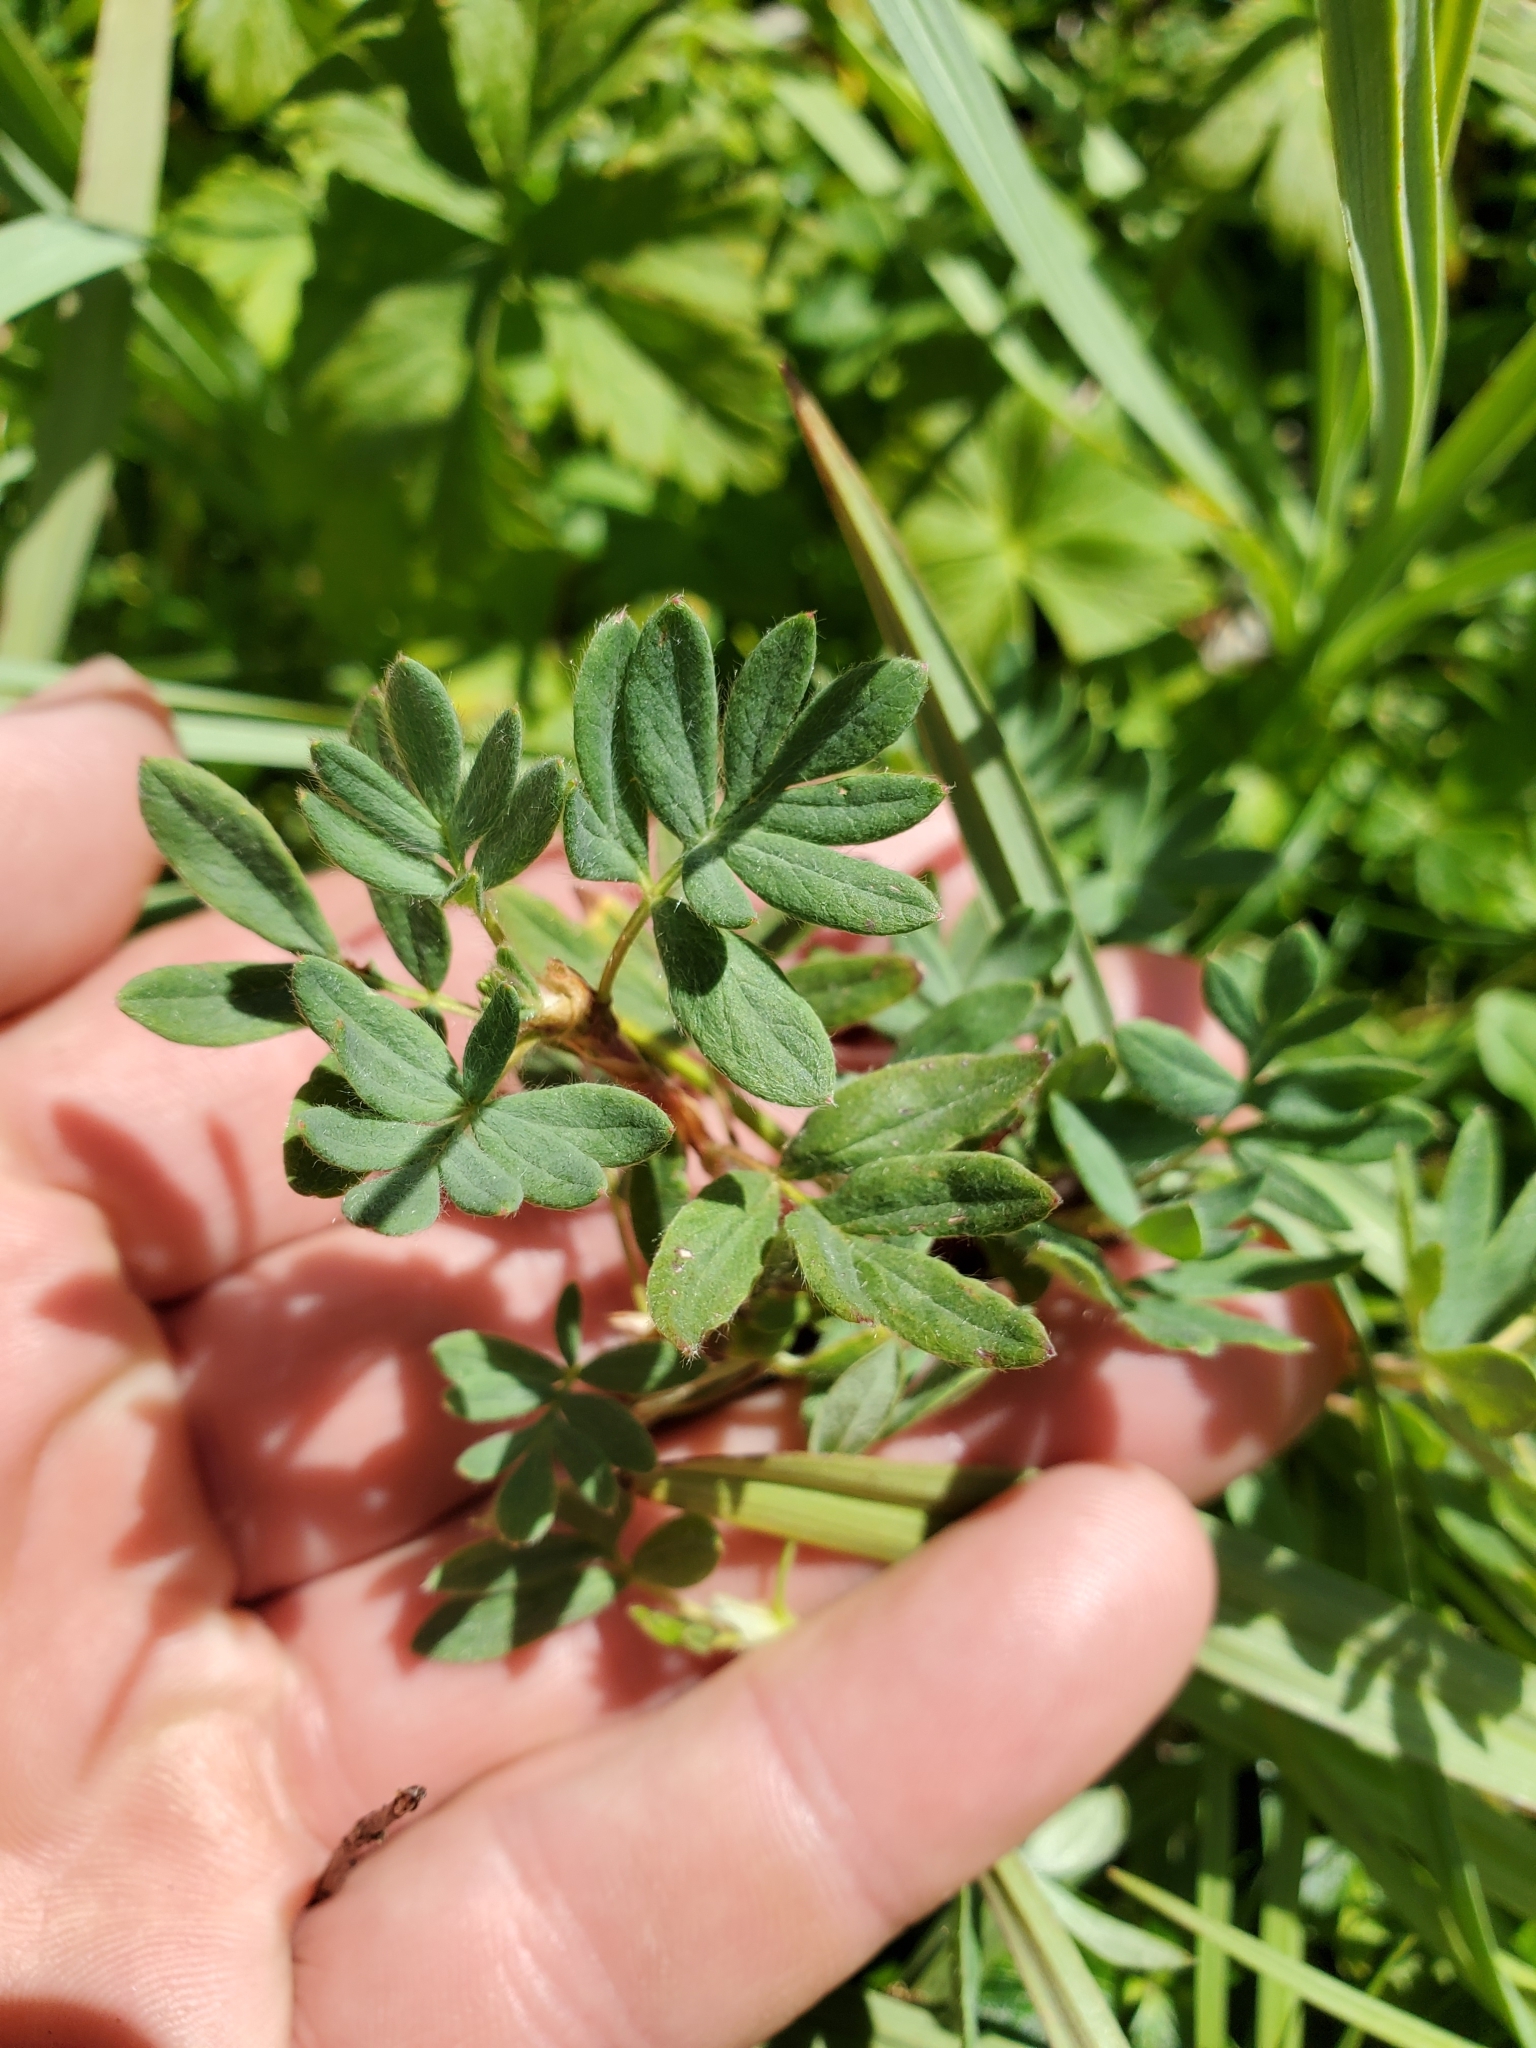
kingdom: Plantae
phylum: Tracheophyta
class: Magnoliopsida
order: Rosales
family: Rosaceae
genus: Dasiphora
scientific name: Dasiphora fruticosa
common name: Shrubby cinquefoil
